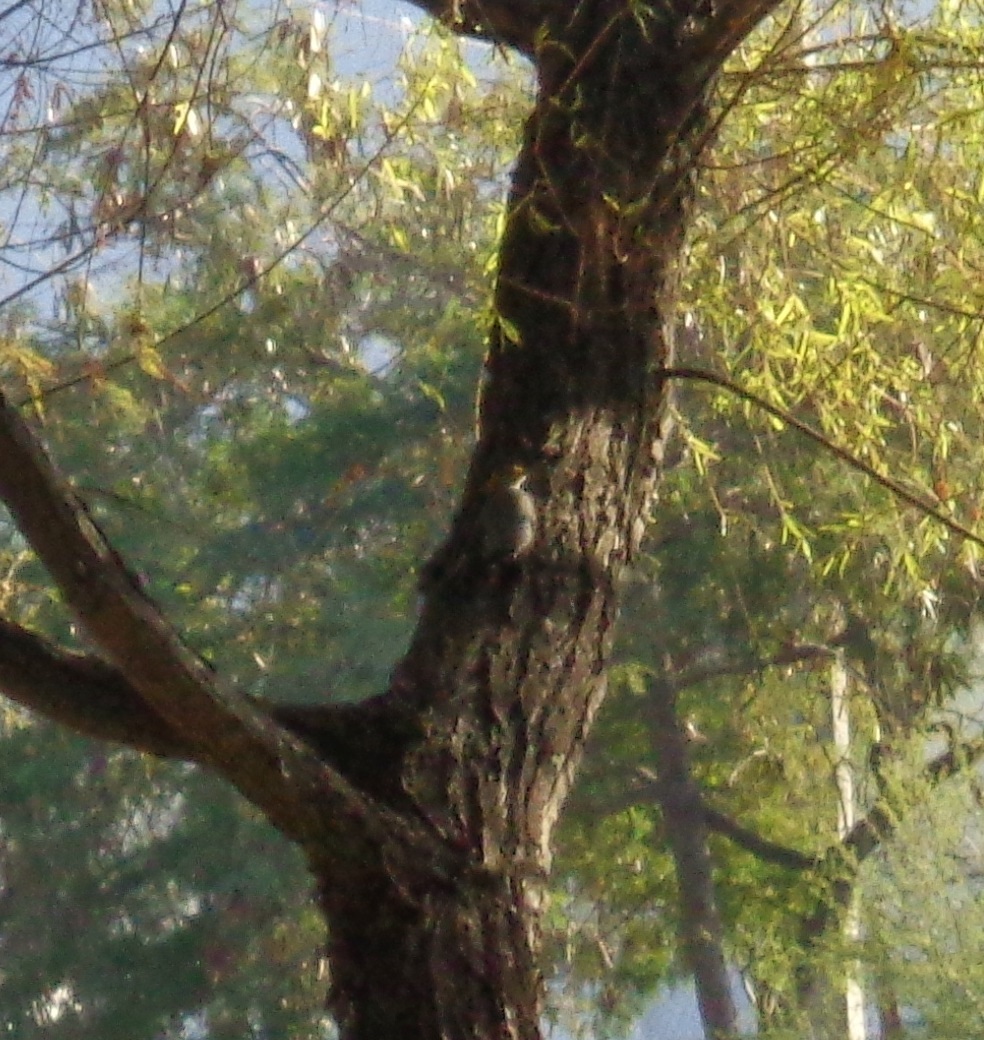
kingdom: Animalia
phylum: Chordata
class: Aves
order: Piciformes
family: Picidae
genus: Melanerpes
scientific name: Melanerpes aurifrons
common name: Golden-fronted woodpecker
